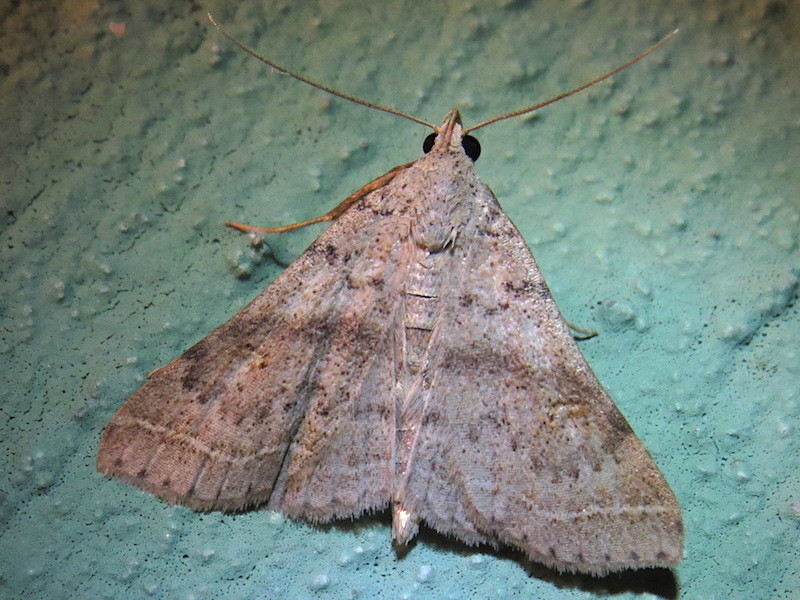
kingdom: Animalia
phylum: Arthropoda
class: Insecta
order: Lepidoptera
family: Erebidae
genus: Bleptina
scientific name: Bleptina caradrinalis
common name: Bent-winged owlet
